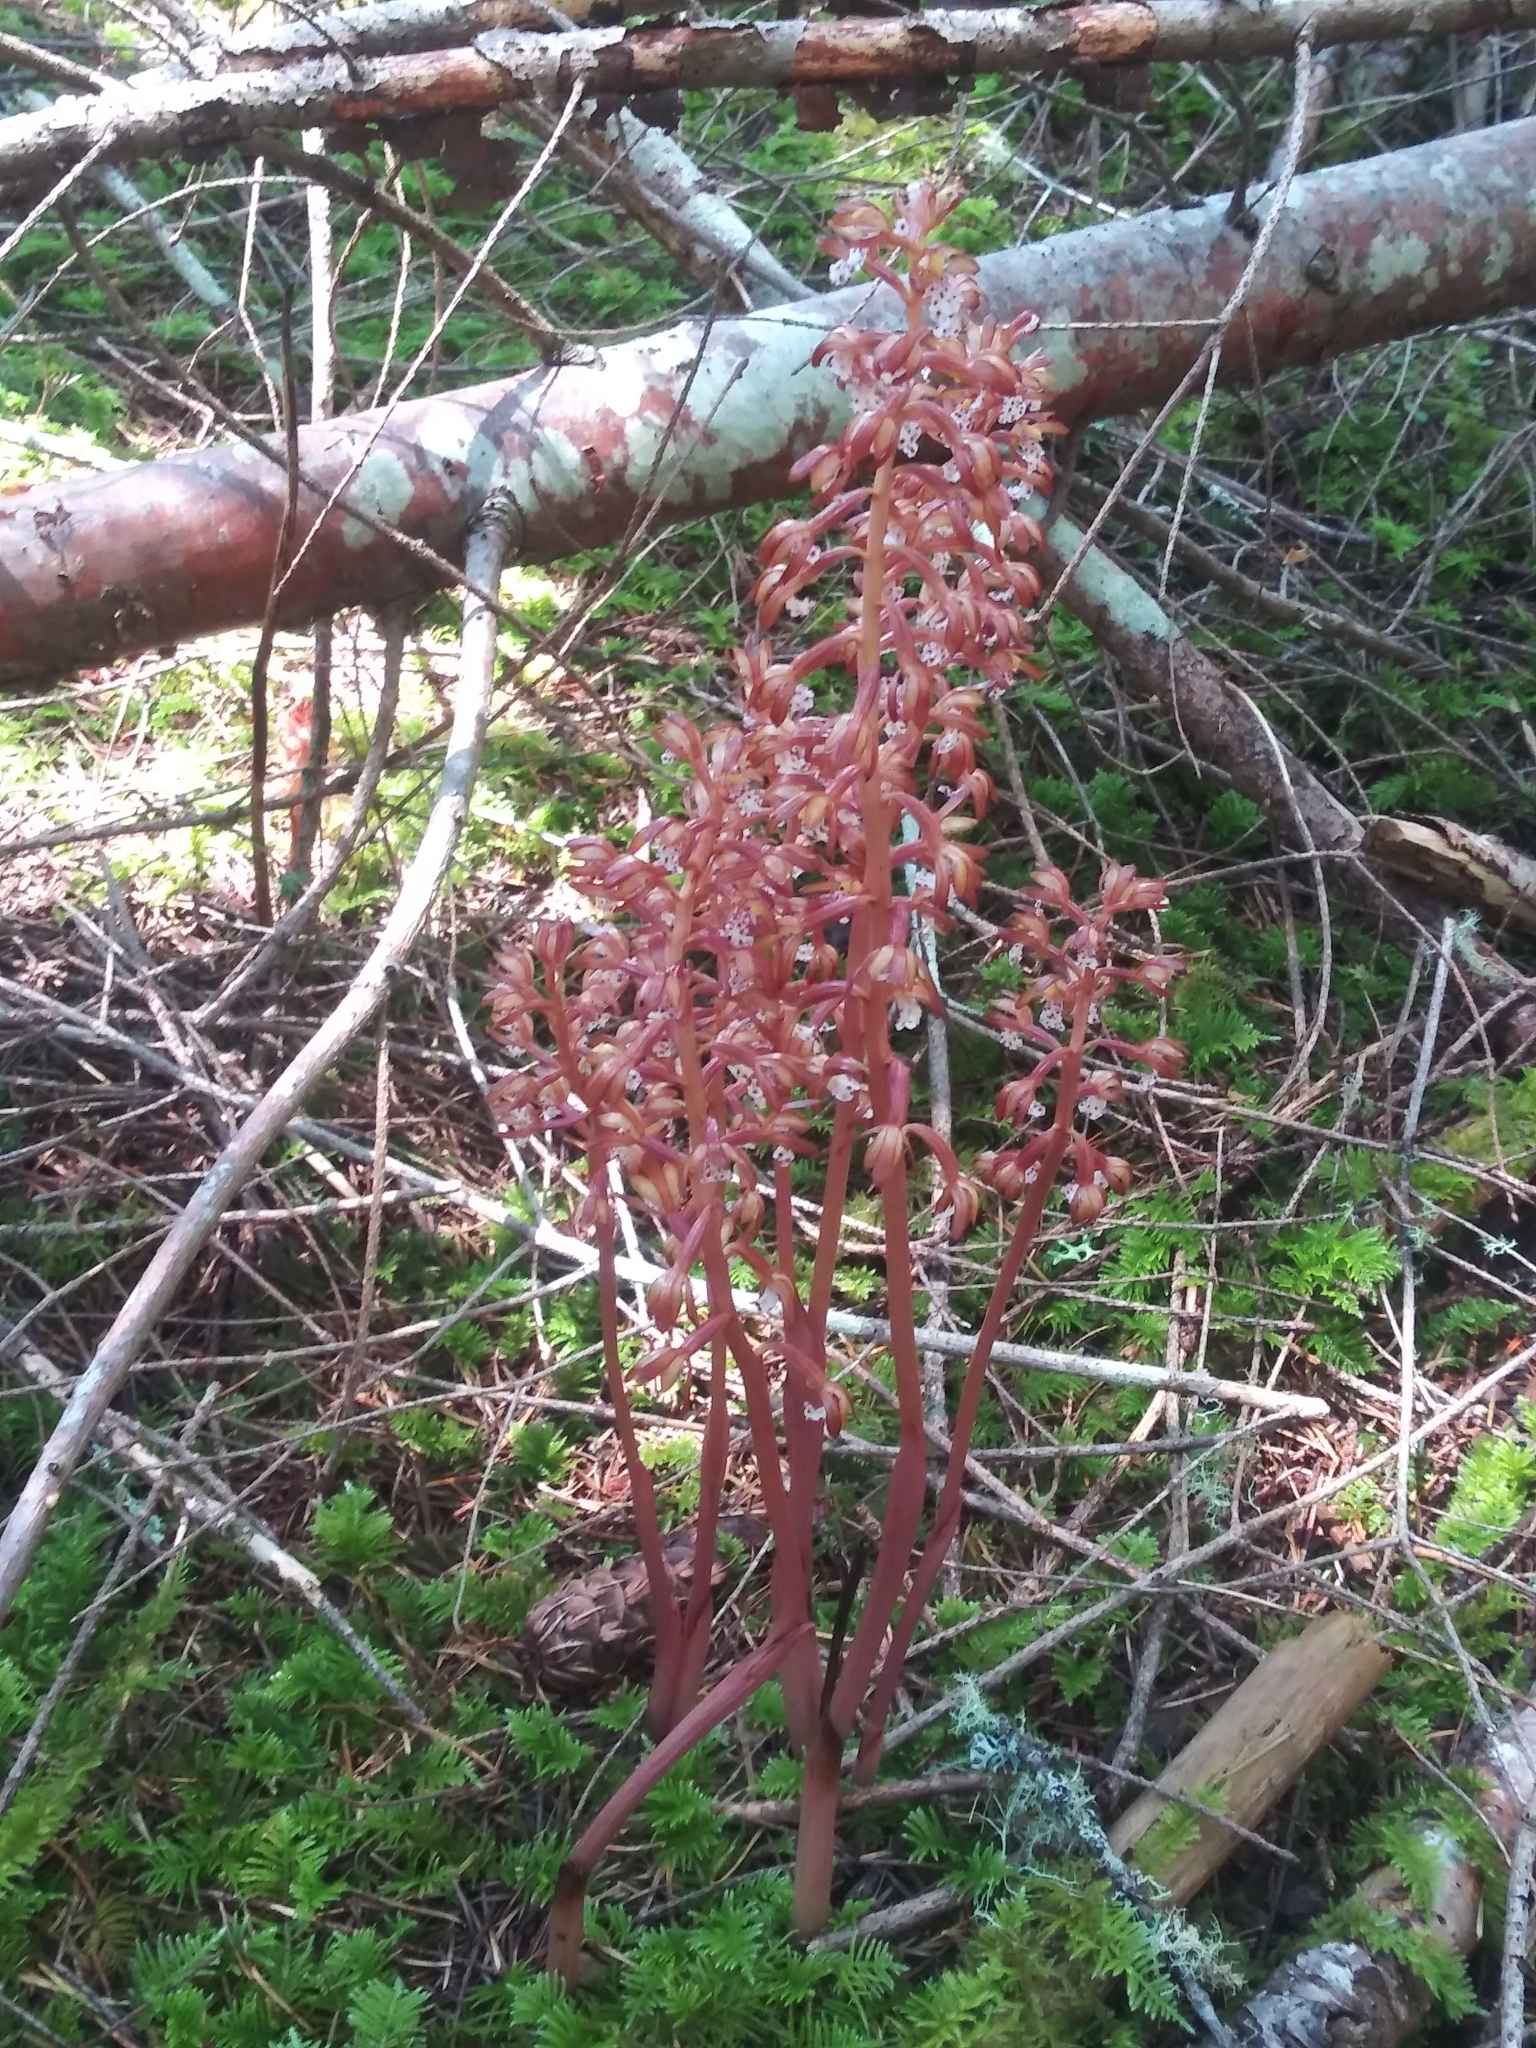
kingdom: Plantae
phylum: Tracheophyta
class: Liliopsida
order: Asparagales
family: Orchidaceae
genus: Corallorhiza
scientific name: Corallorhiza maculata
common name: Spotted coralroot
